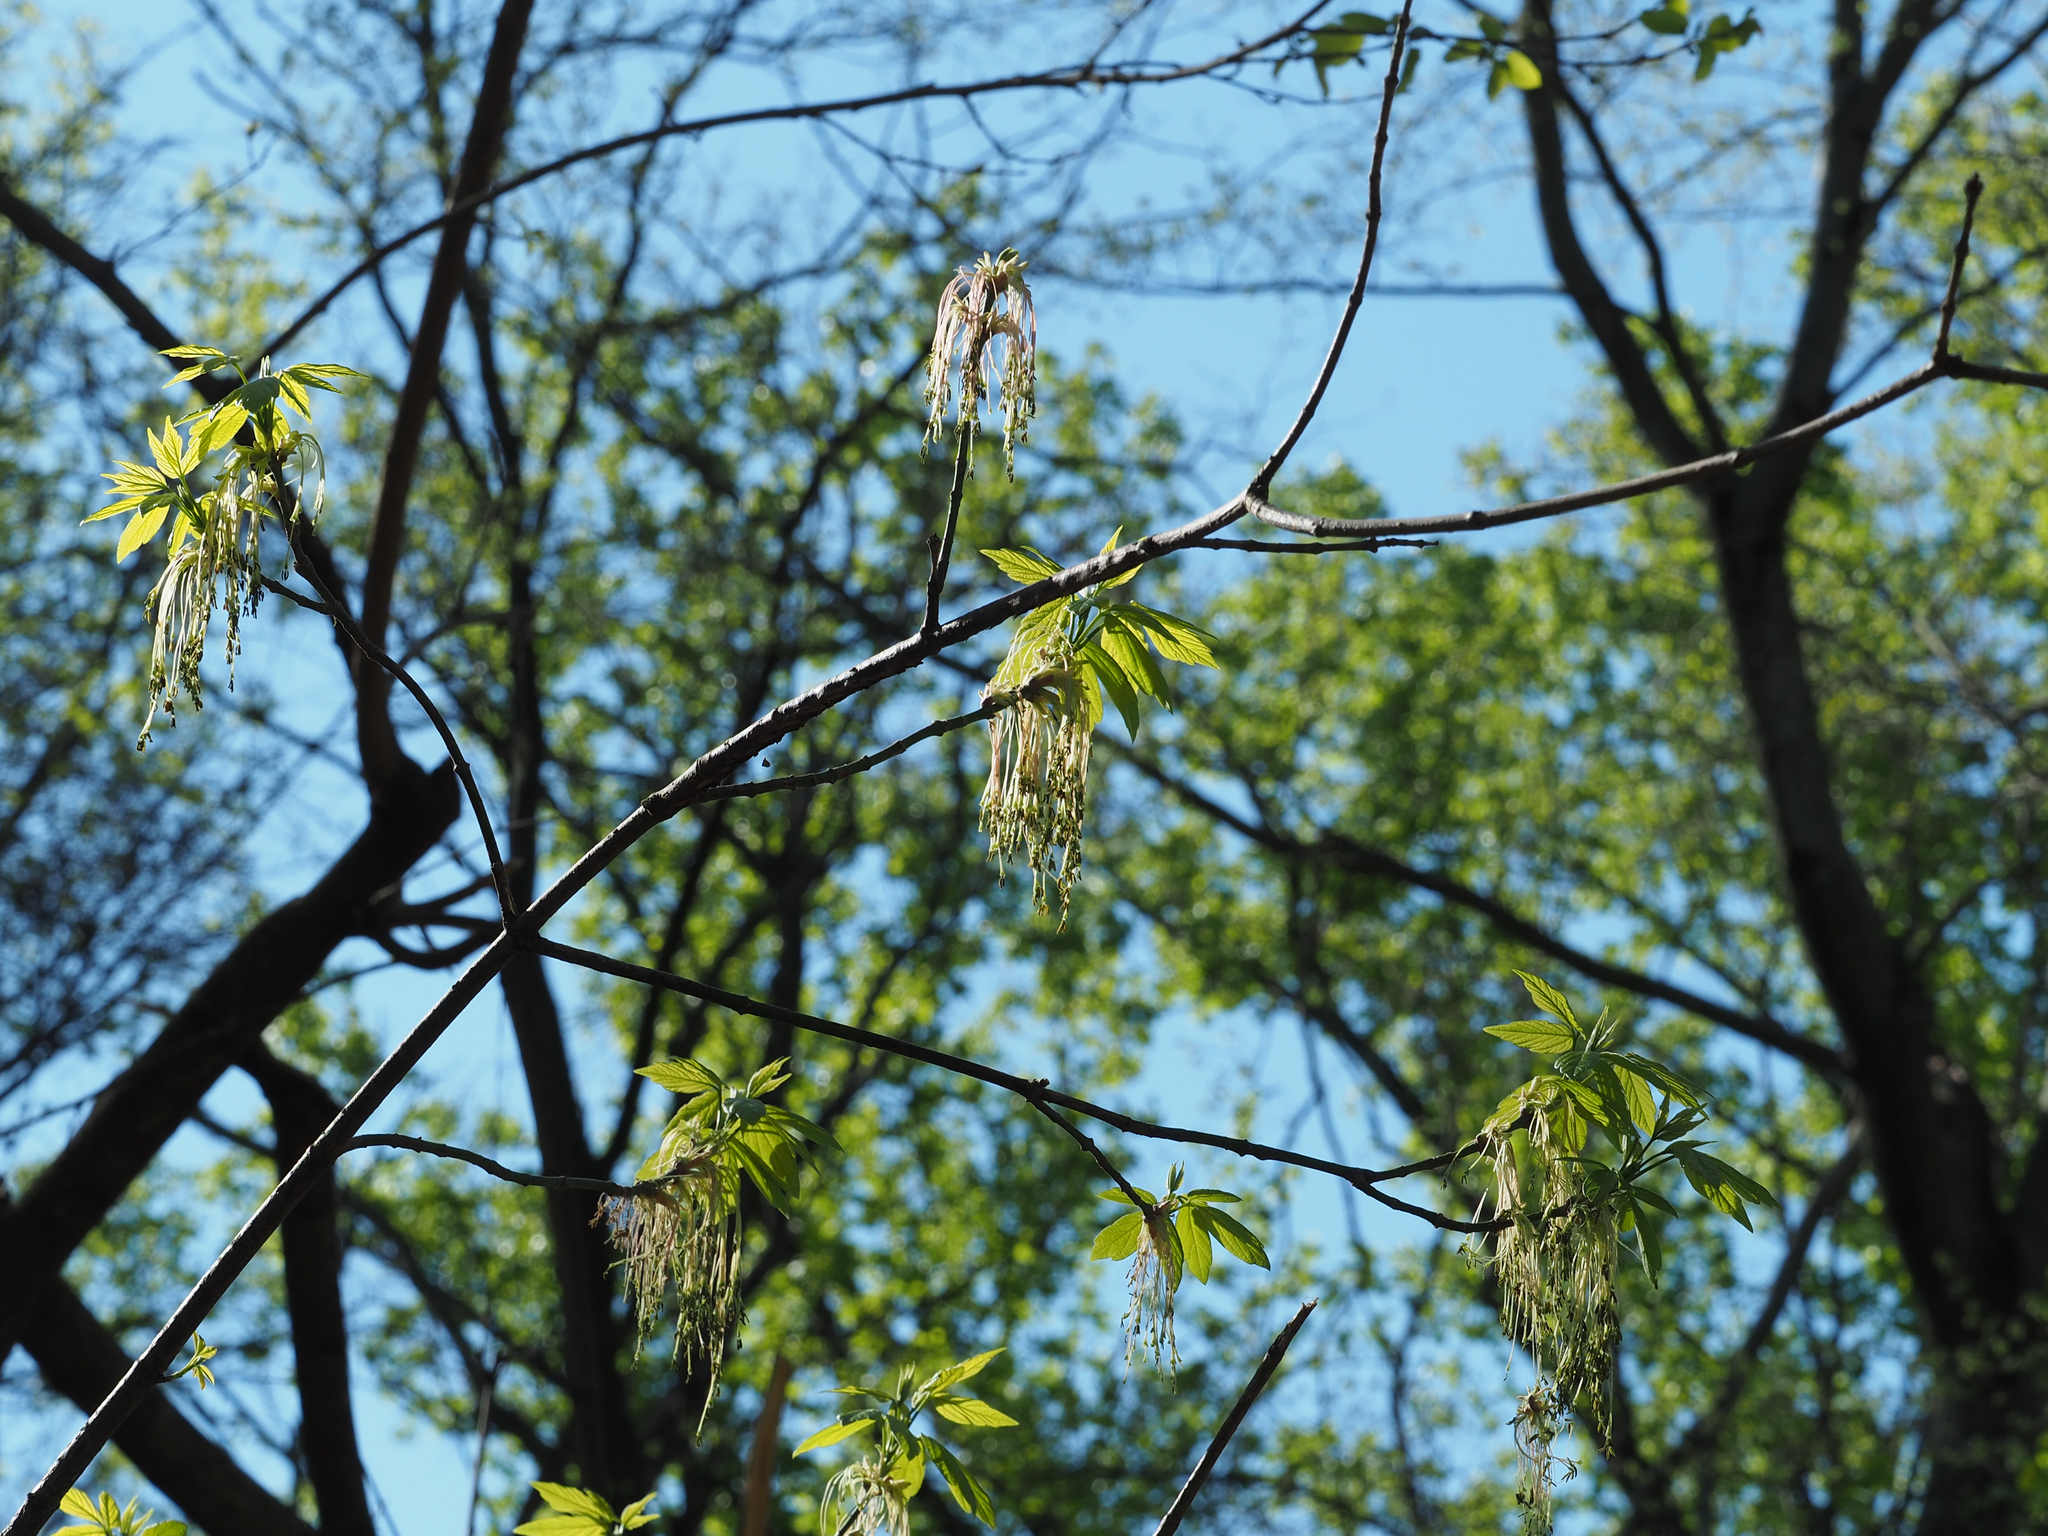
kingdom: Plantae
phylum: Tracheophyta
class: Magnoliopsida
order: Sapindales
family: Sapindaceae
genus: Acer
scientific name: Acer negundo
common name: Ashleaf maple
